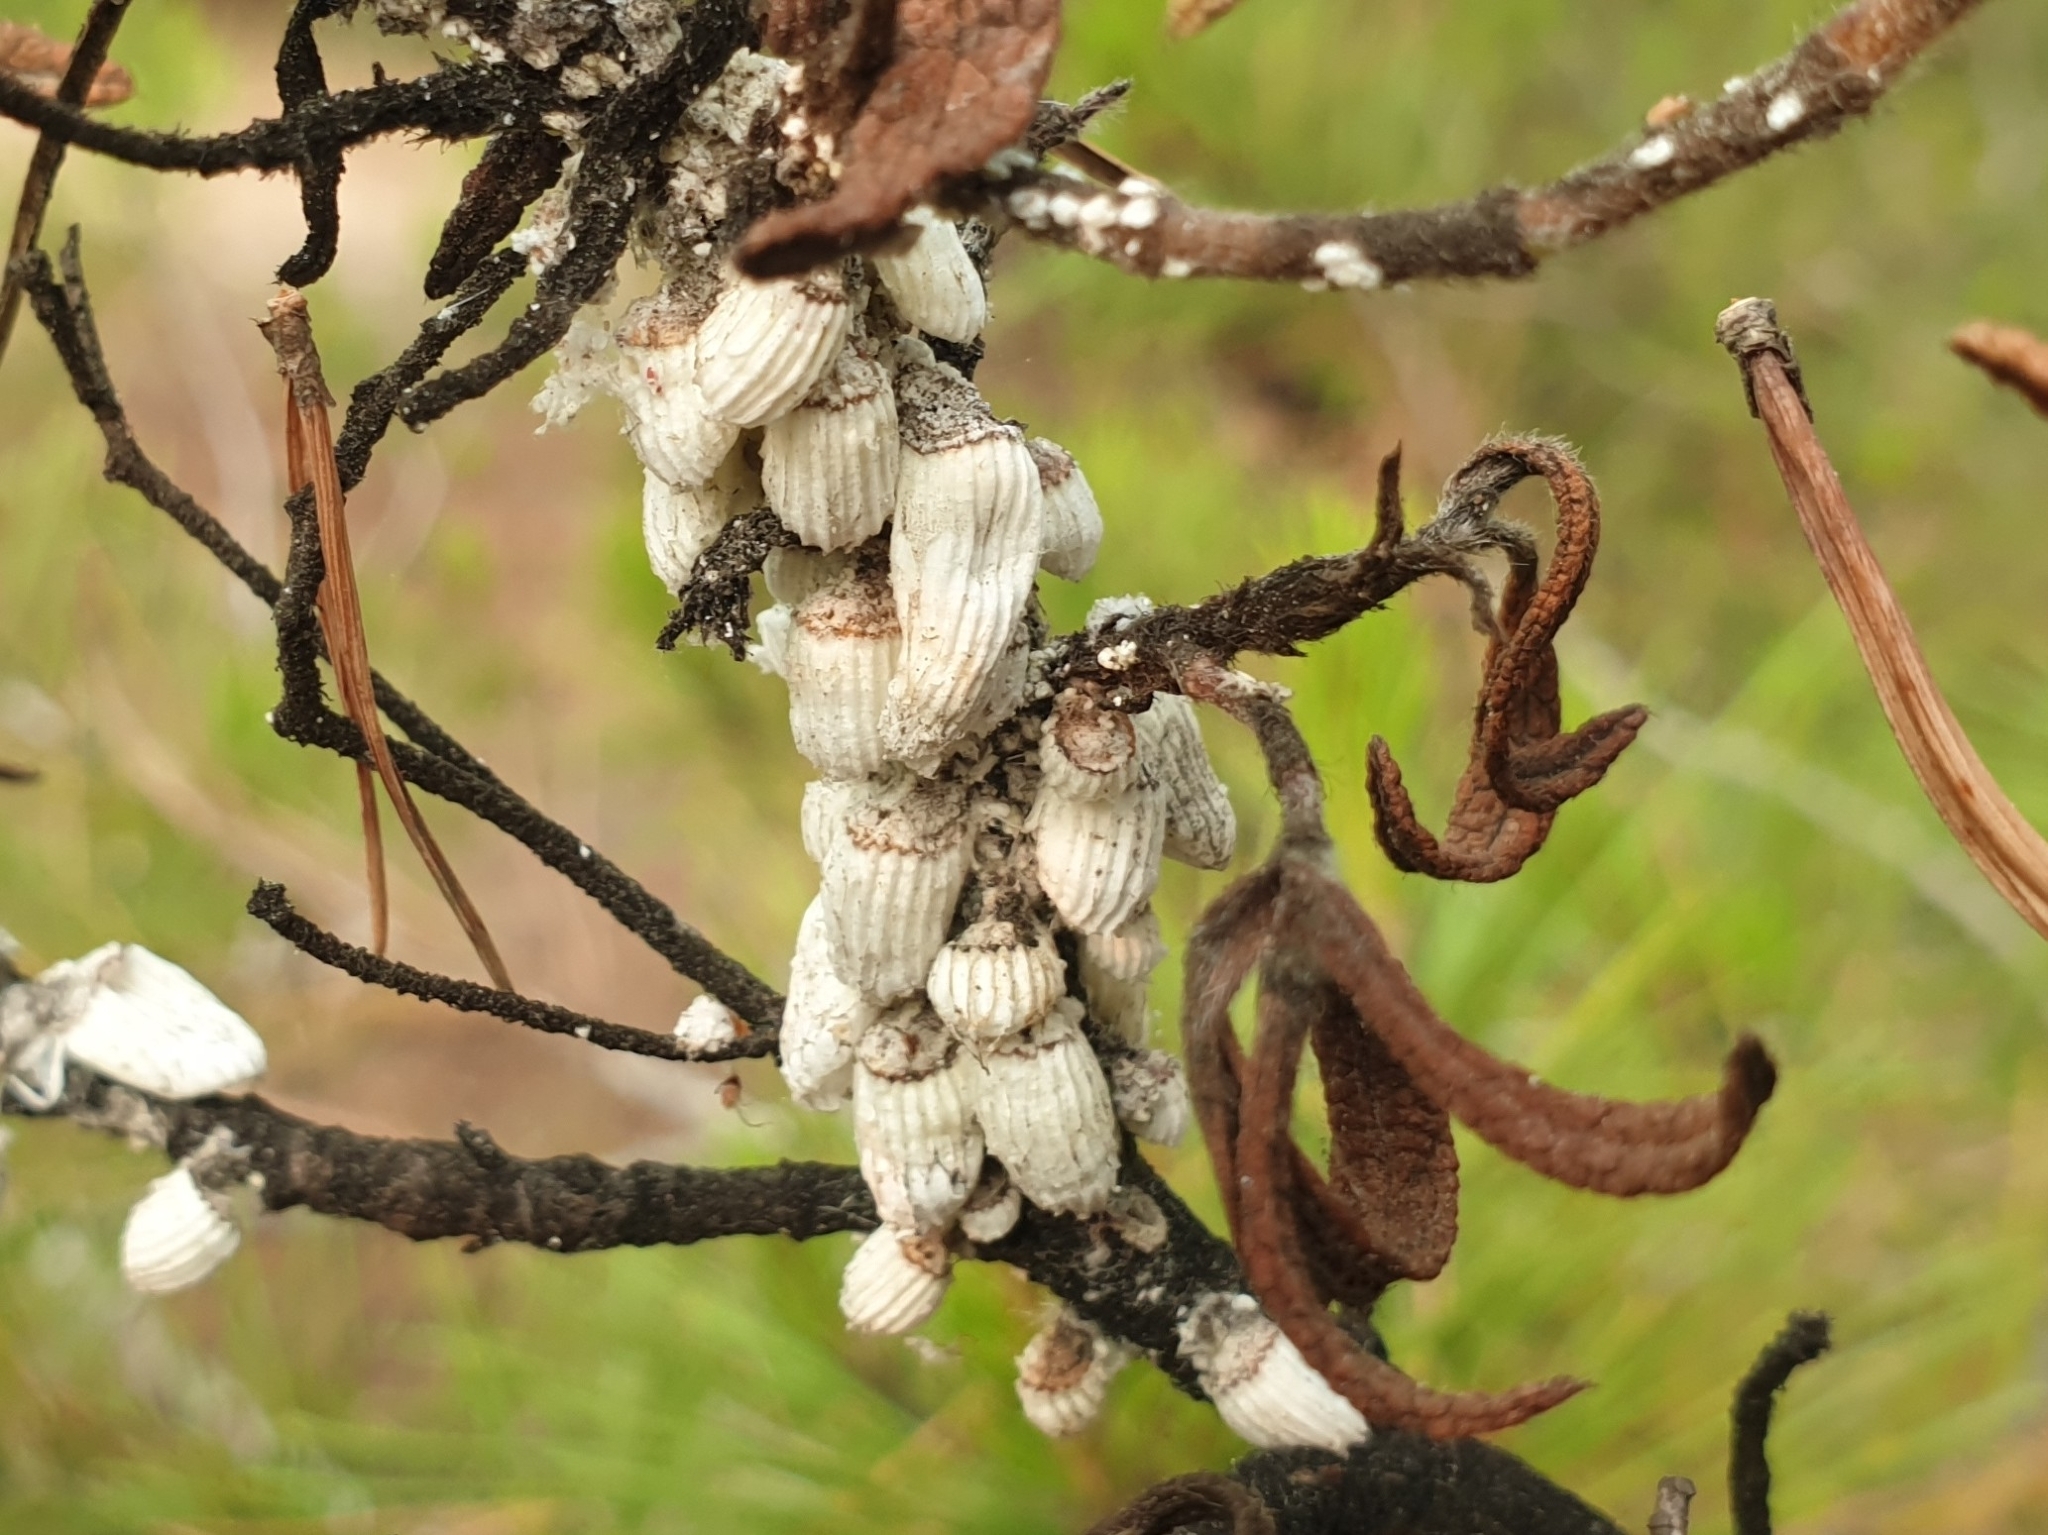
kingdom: Animalia
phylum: Arthropoda
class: Insecta
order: Hemiptera
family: Margarodidae
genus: Icerya
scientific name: Icerya purchasi
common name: Cottony cushion scale
